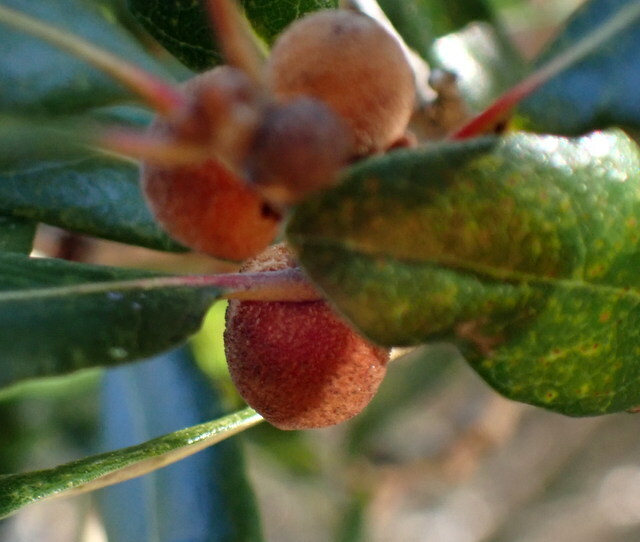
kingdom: Animalia
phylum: Arthropoda
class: Insecta
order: Hymenoptera
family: Cynipidae
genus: Disholcaspis
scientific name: Disholcaspis
